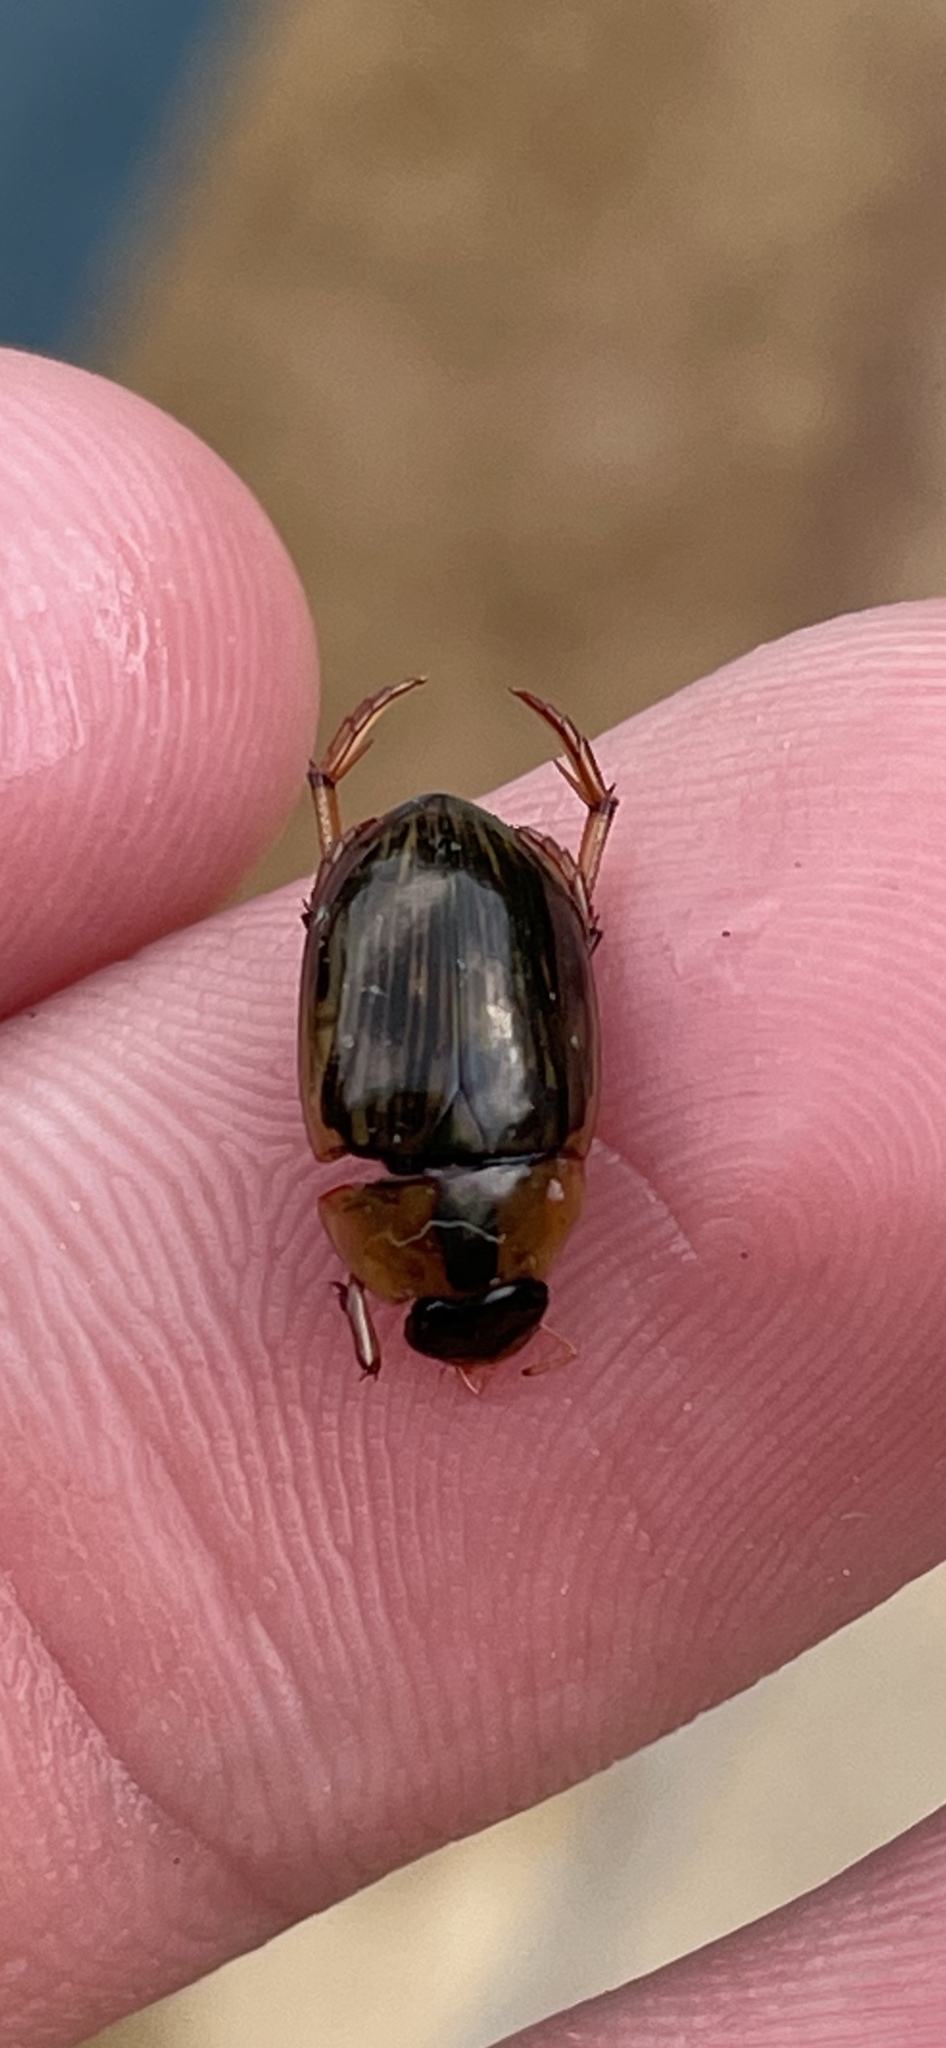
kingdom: Animalia
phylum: Arthropoda
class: Insecta
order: Coleoptera
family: Hydrophilidae
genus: Tropisternus
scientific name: Tropisternus collaris
